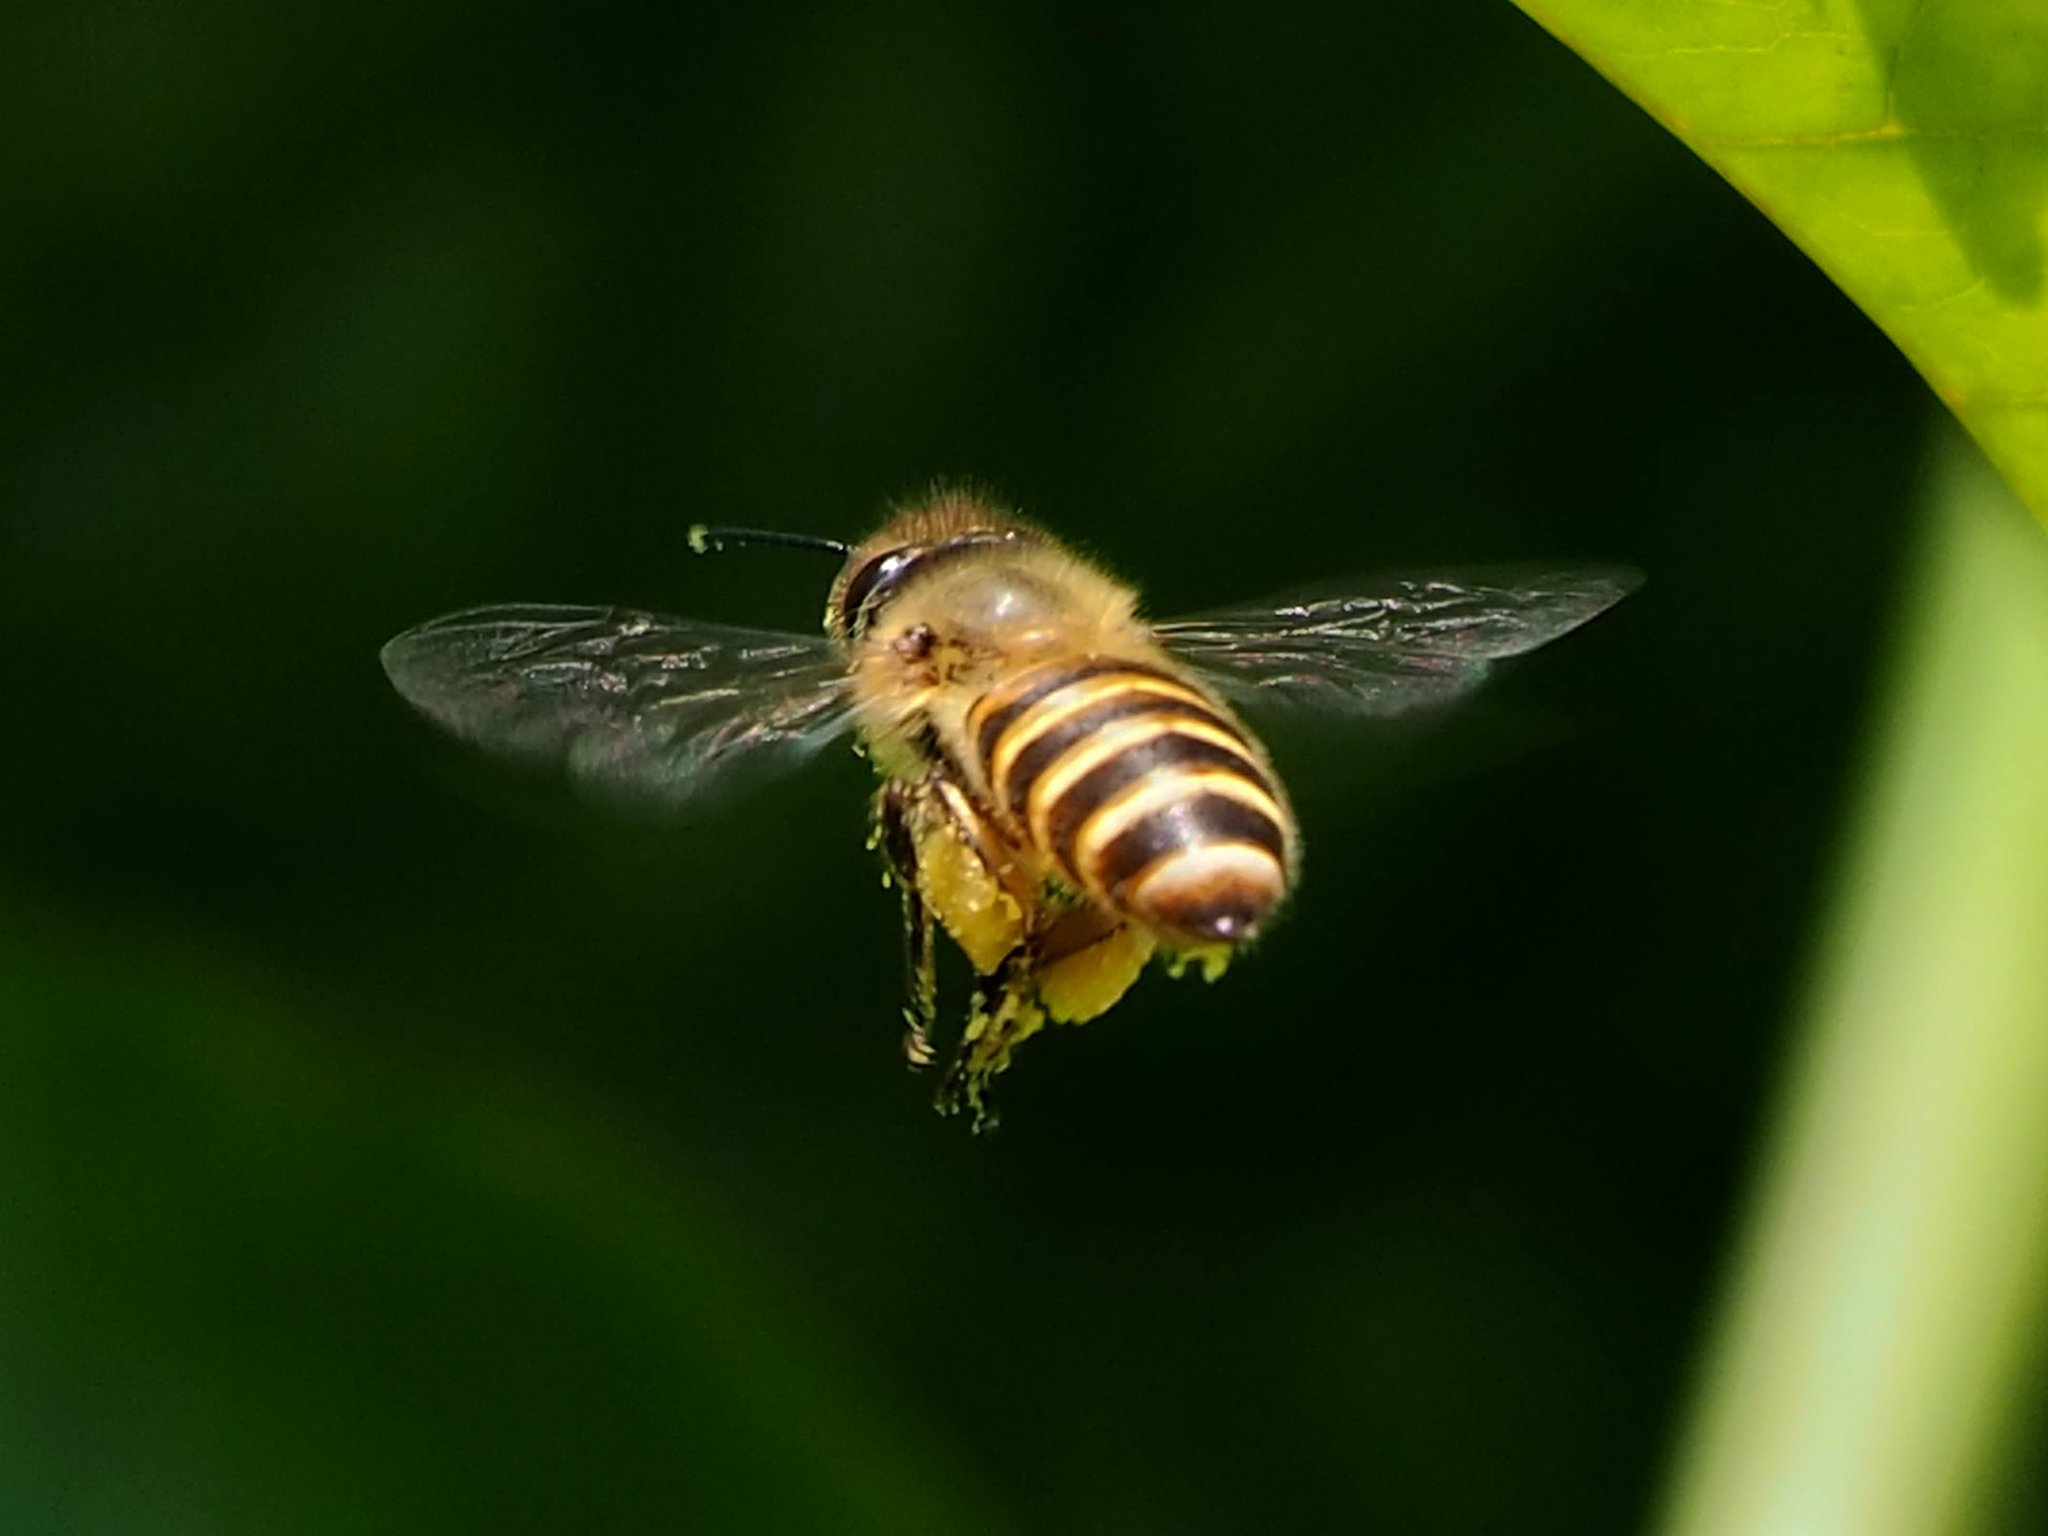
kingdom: Animalia
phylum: Arthropoda
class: Insecta
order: Hymenoptera
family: Apidae
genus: Apis
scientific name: Apis cerana
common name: Honey bee
